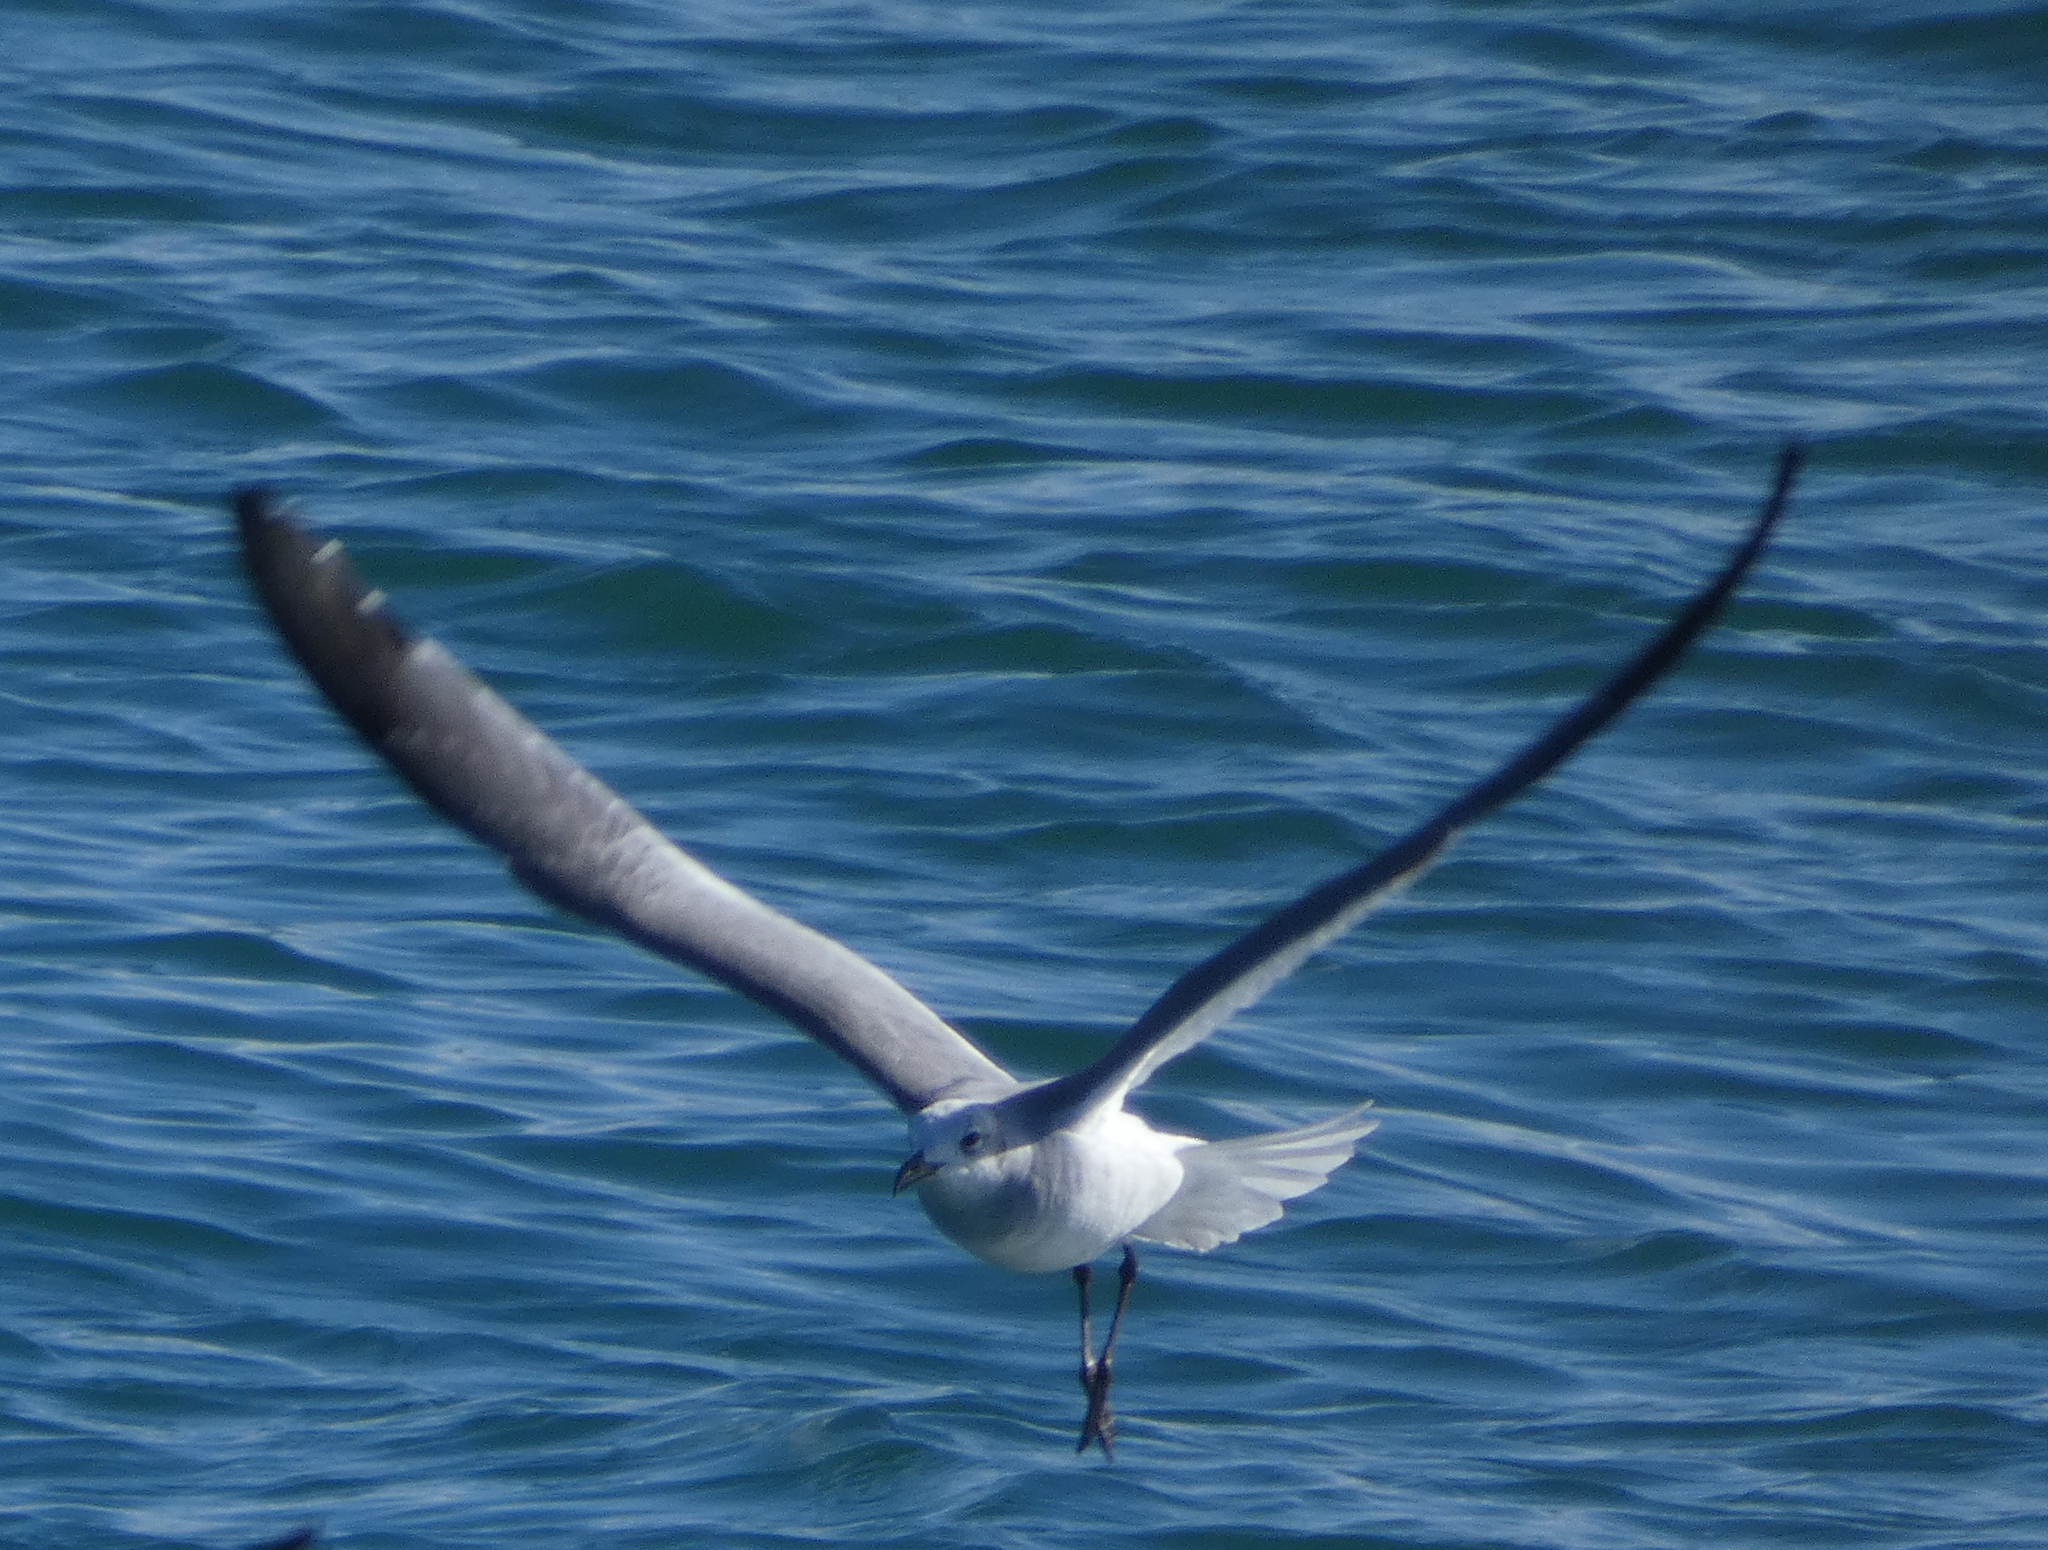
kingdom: Animalia
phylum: Chordata
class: Aves
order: Charadriiformes
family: Laridae
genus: Leucophaeus
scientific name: Leucophaeus atricilla
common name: Laughing gull
